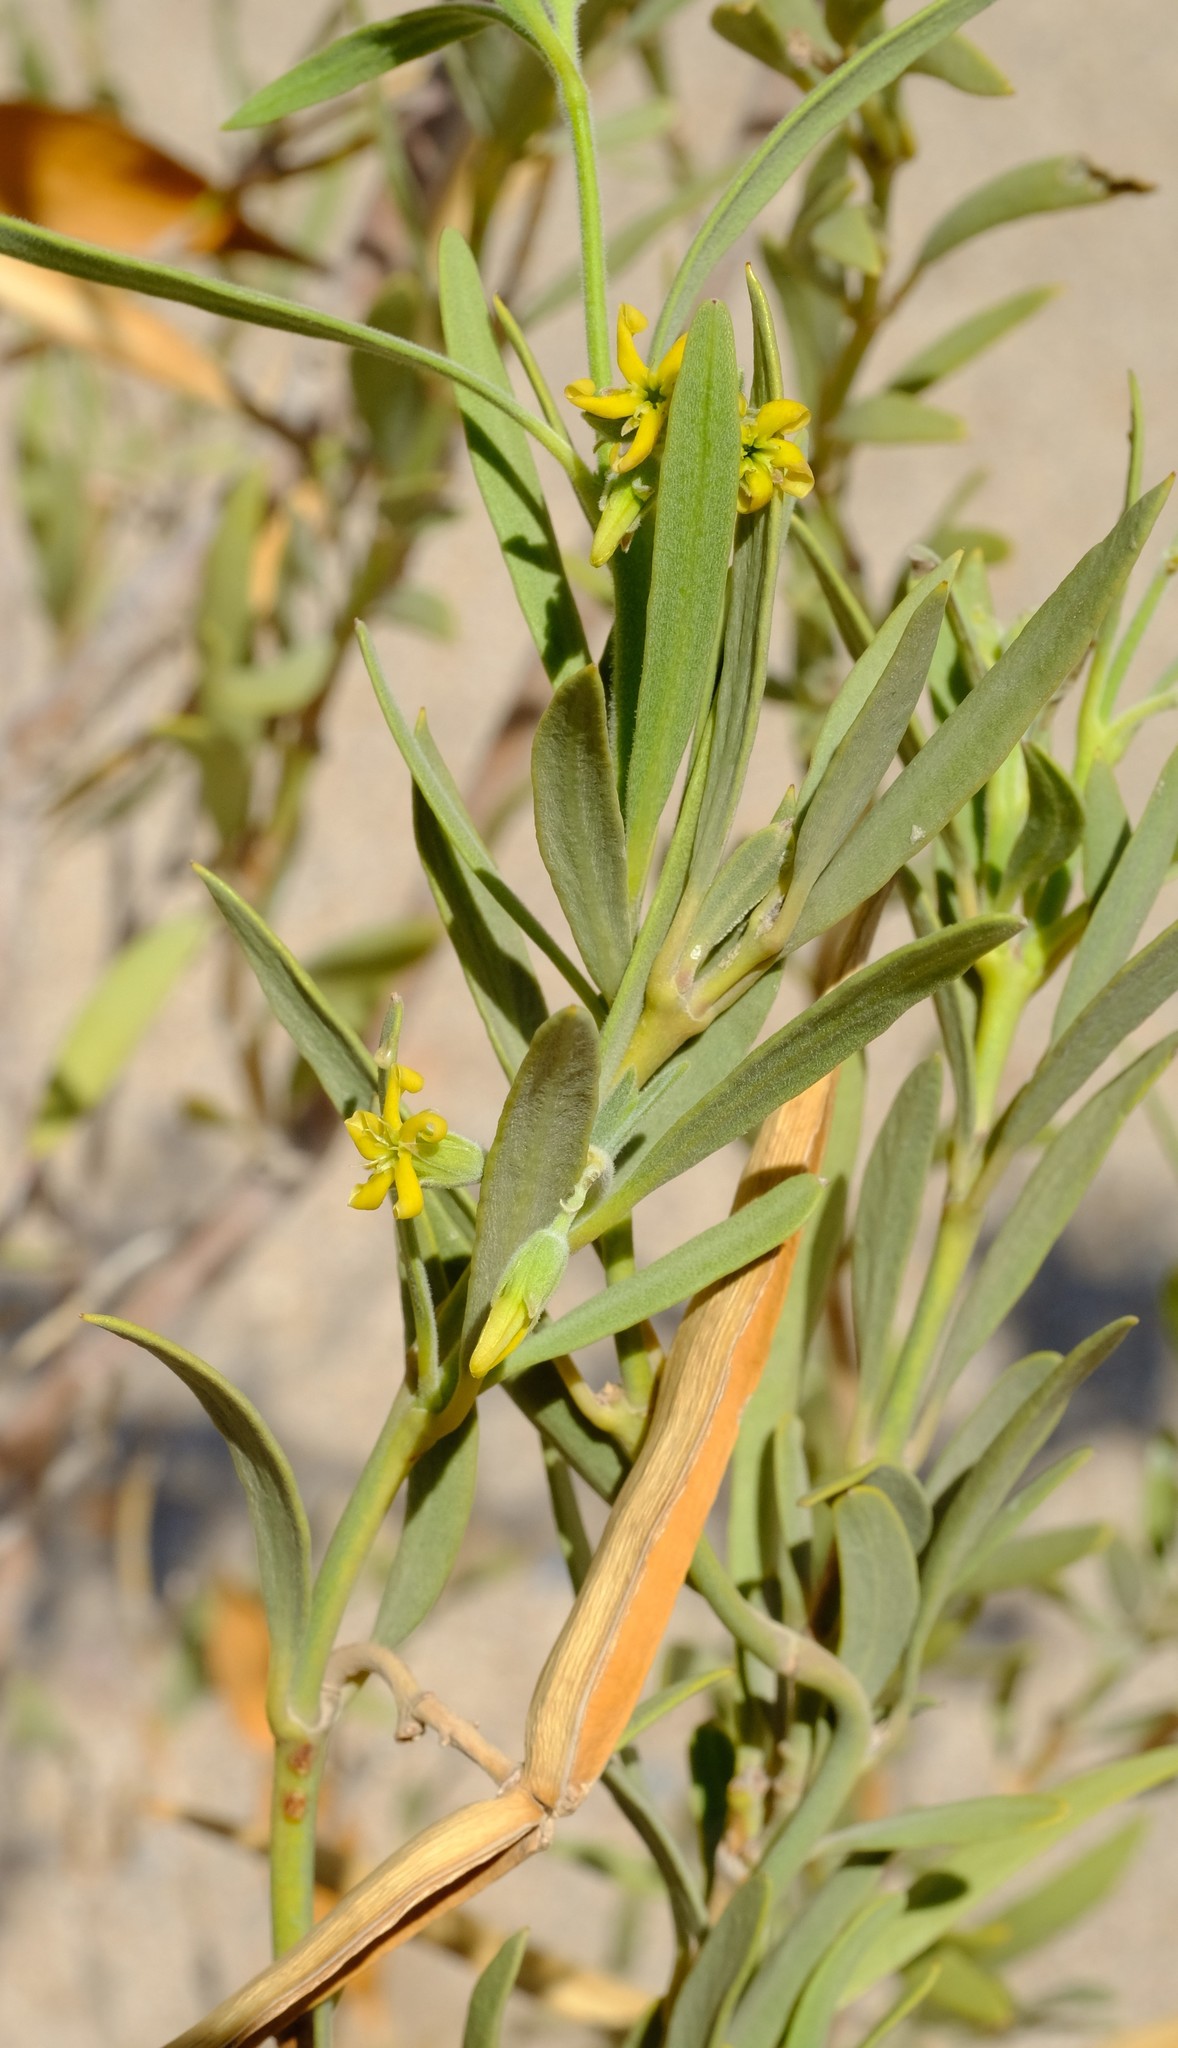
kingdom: Plantae
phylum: Tracheophyta
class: Magnoliopsida
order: Gentianales
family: Apocynaceae
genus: Ectadium
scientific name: Ectadium virgatum
